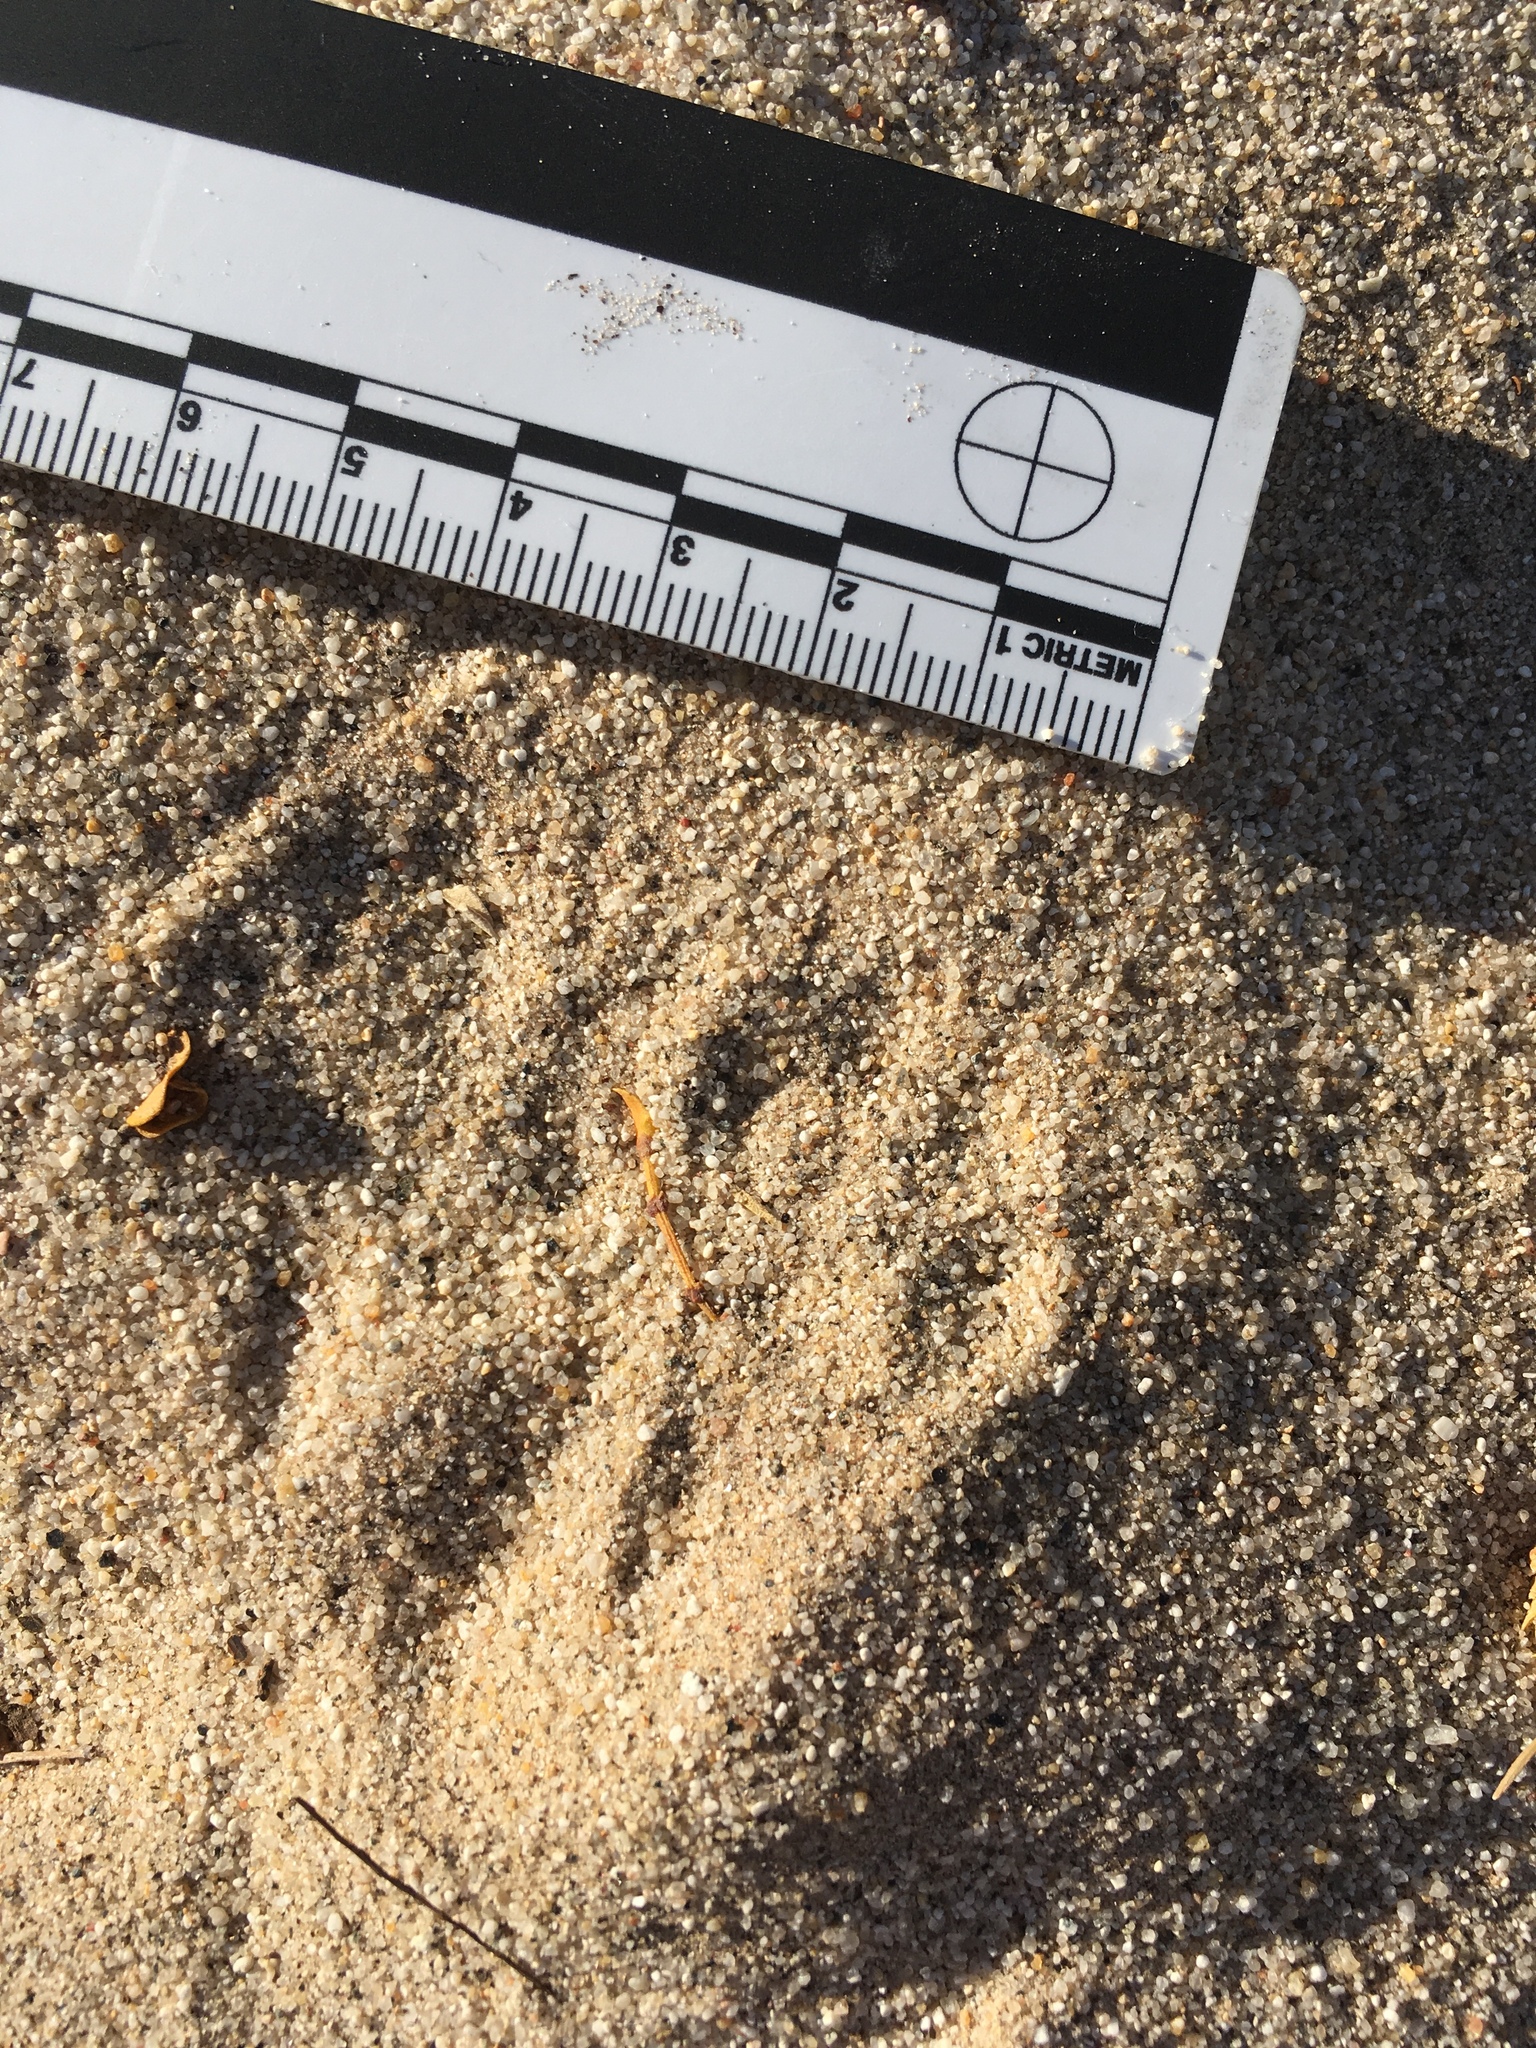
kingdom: Animalia
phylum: Chordata
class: Mammalia
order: Rodentia
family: Heteromyidae
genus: Dipodomys
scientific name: Dipodomys deserti
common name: Desert kangaroo rat
